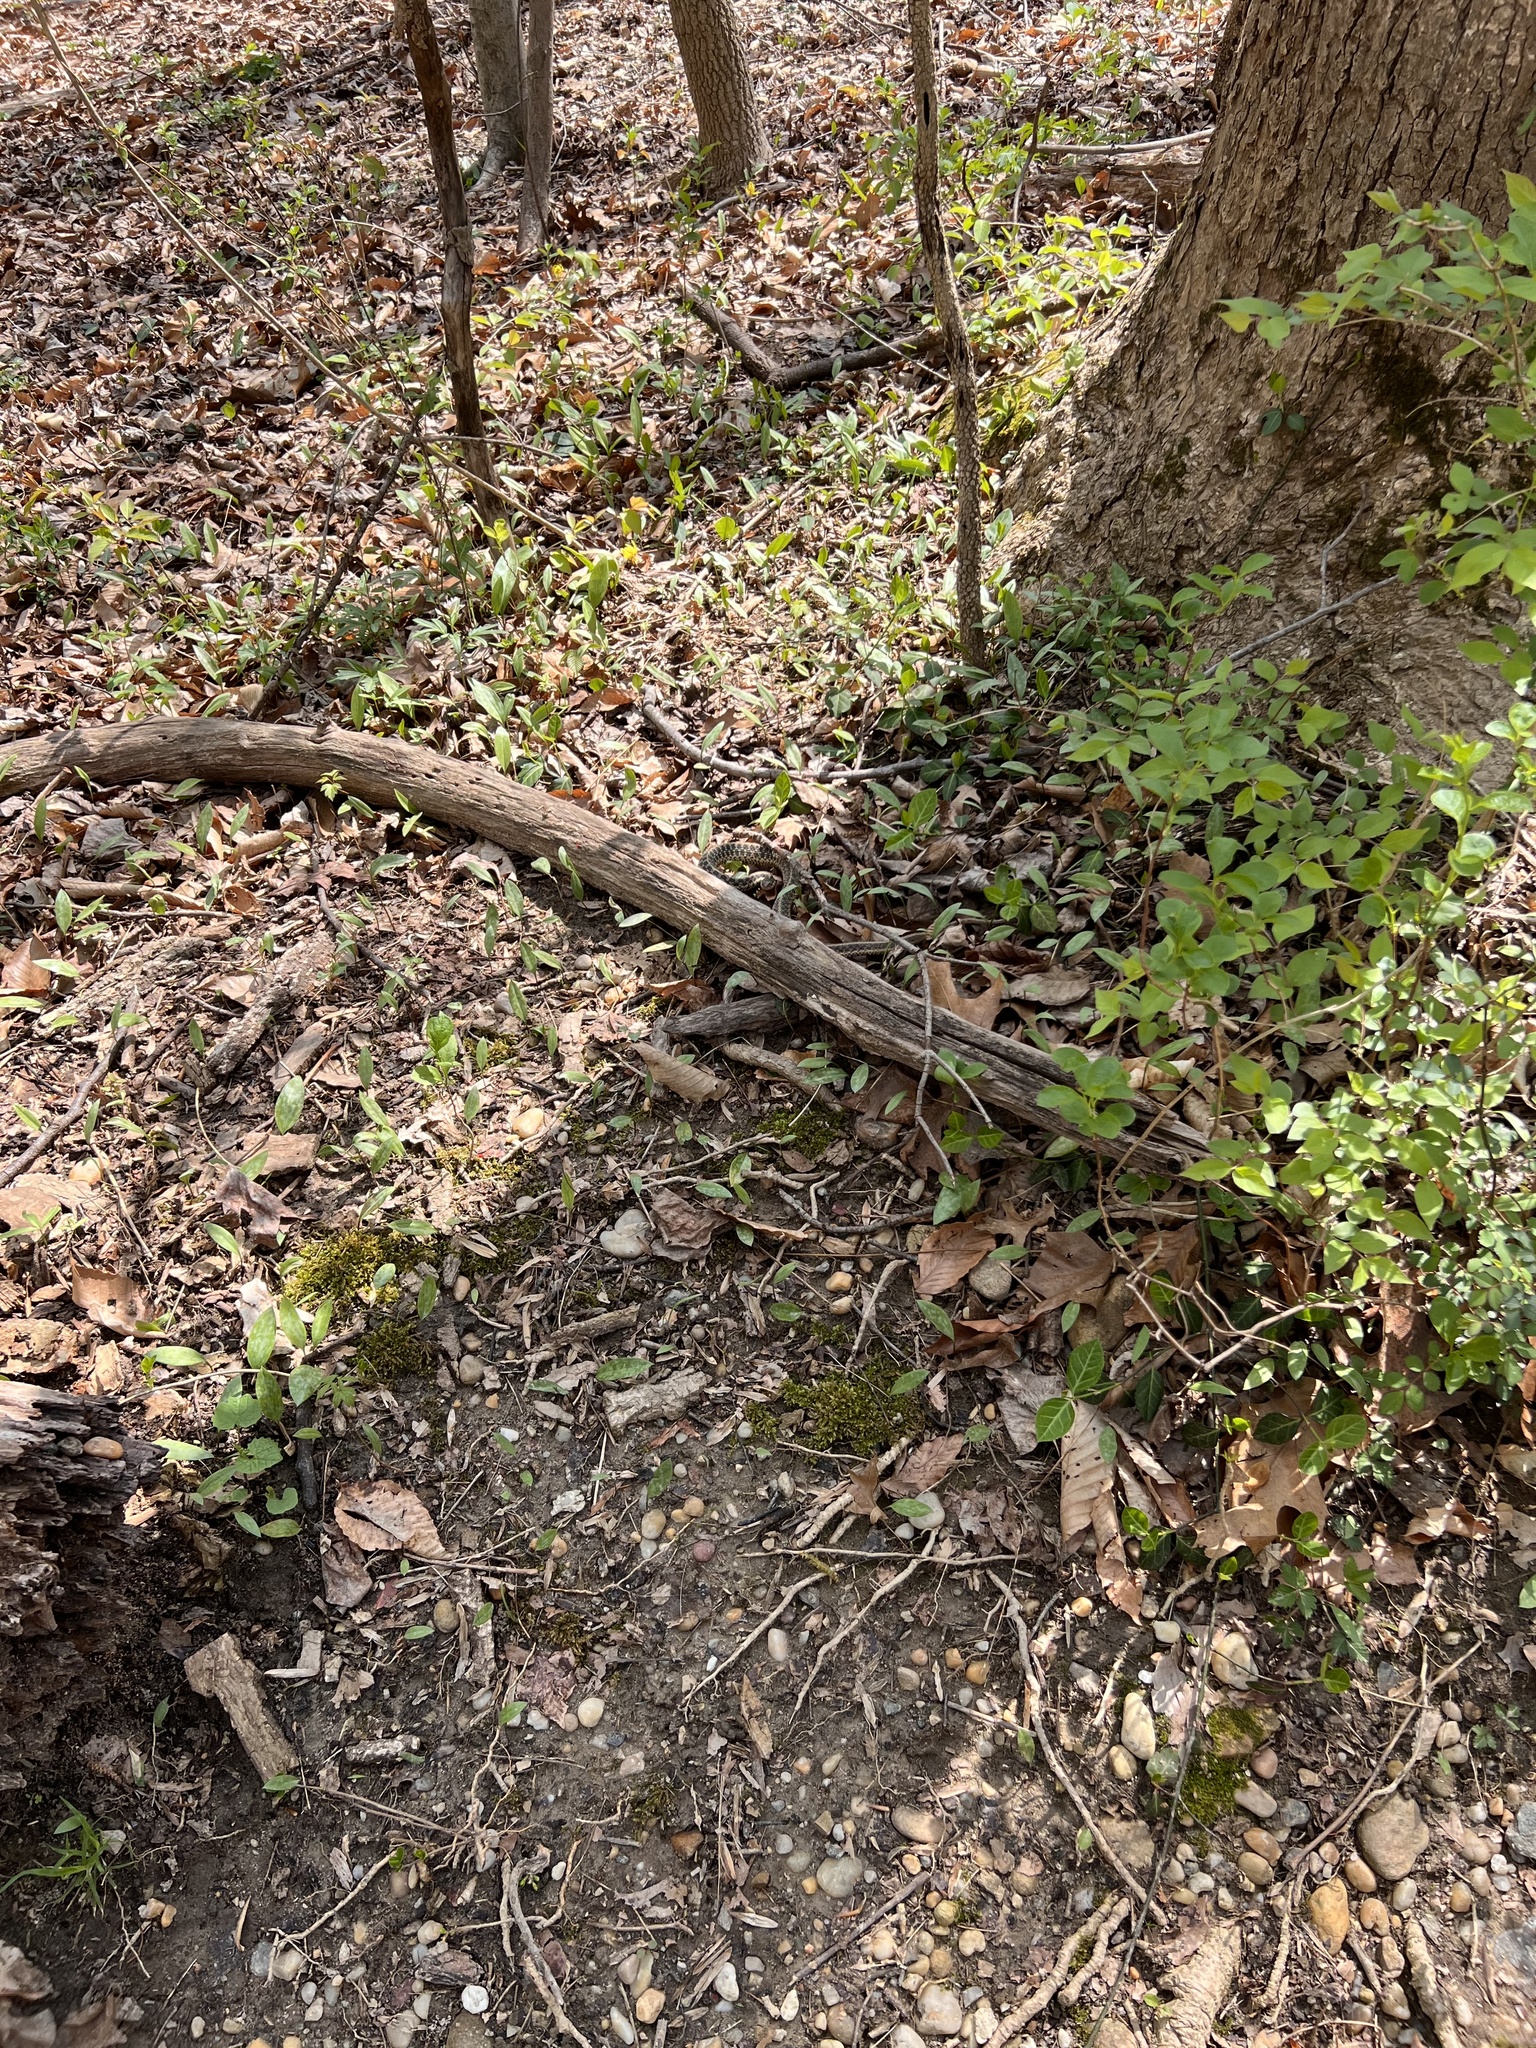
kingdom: Animalia
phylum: Chordata
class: Squamata
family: Colubridae
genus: Thamnophis
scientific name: Thamnophis sirtalis
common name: Common garter snake
